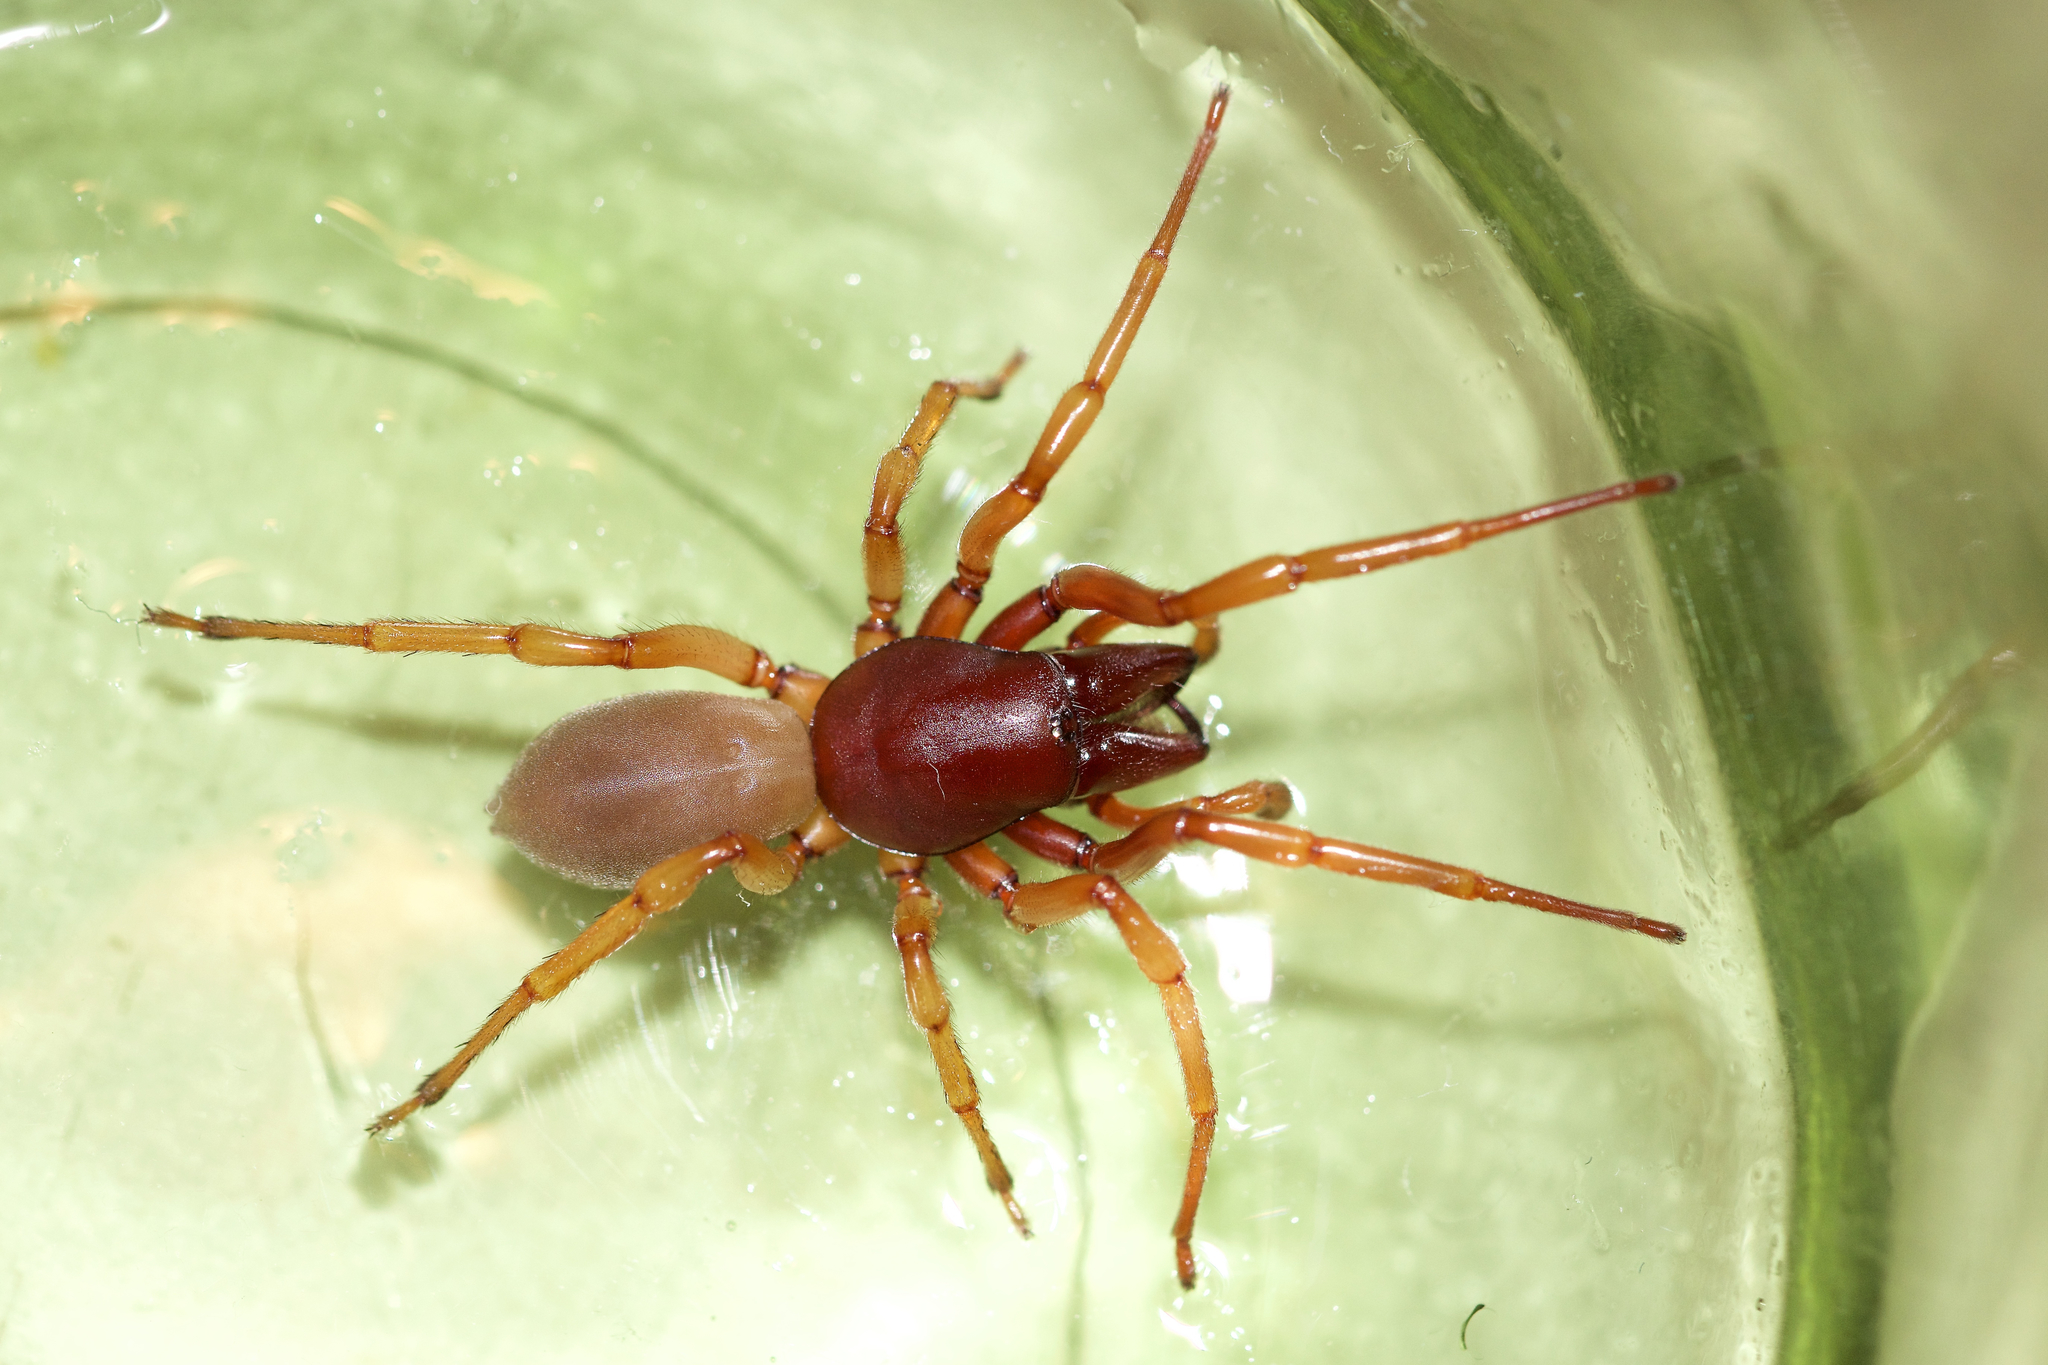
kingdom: Animalia
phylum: Arthropoda
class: Arachnida
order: Araneae
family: Dysderidae
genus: Dysdera
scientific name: Dysdera crocata
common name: Woodlouse spider
